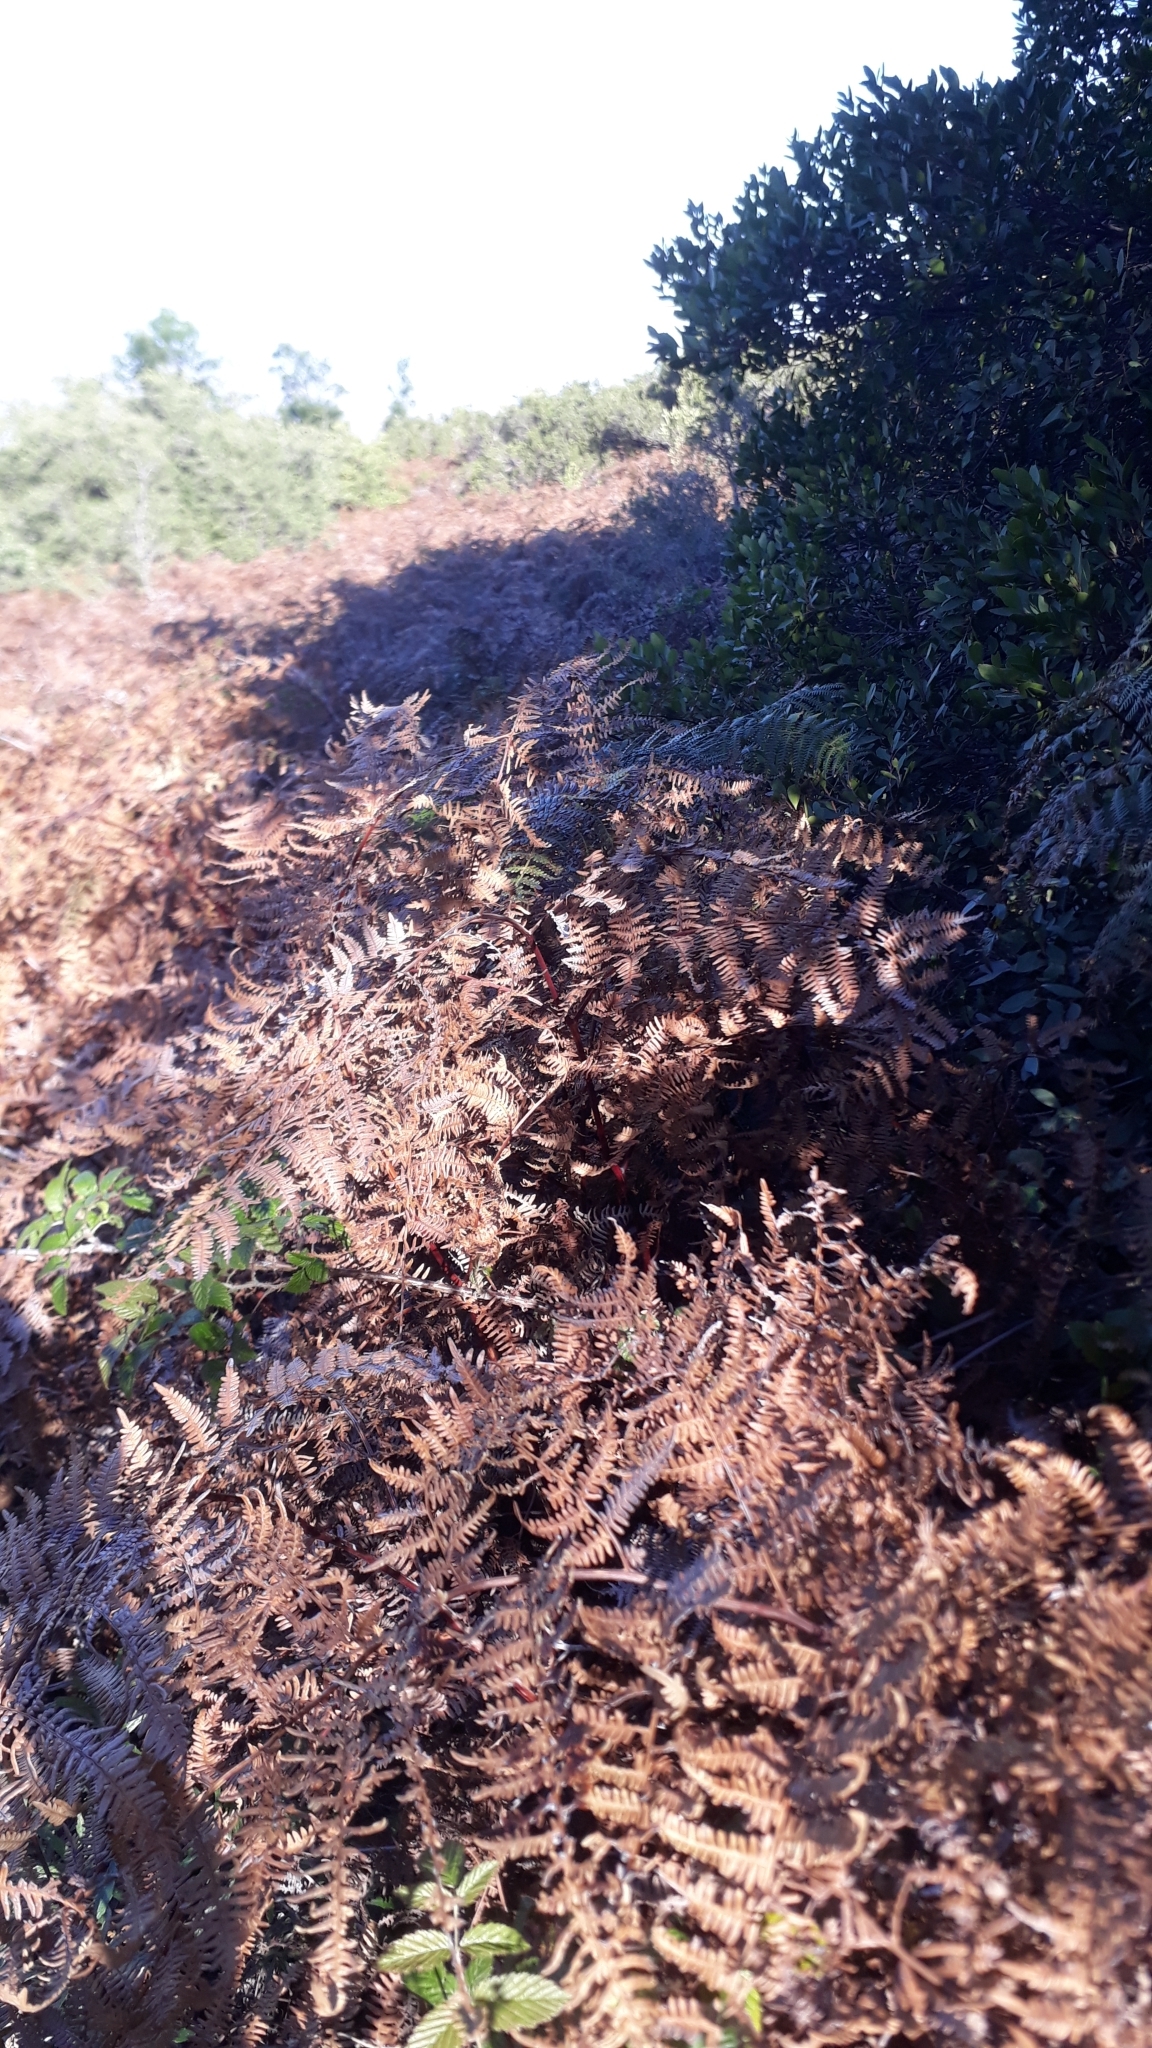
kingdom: Plantae
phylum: Tracheophyta
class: Polypodiopsida
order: Polypodiales
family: Dennstaedtiaceae
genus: Pteridium
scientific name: Pteridium aquilinum
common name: Bracken
